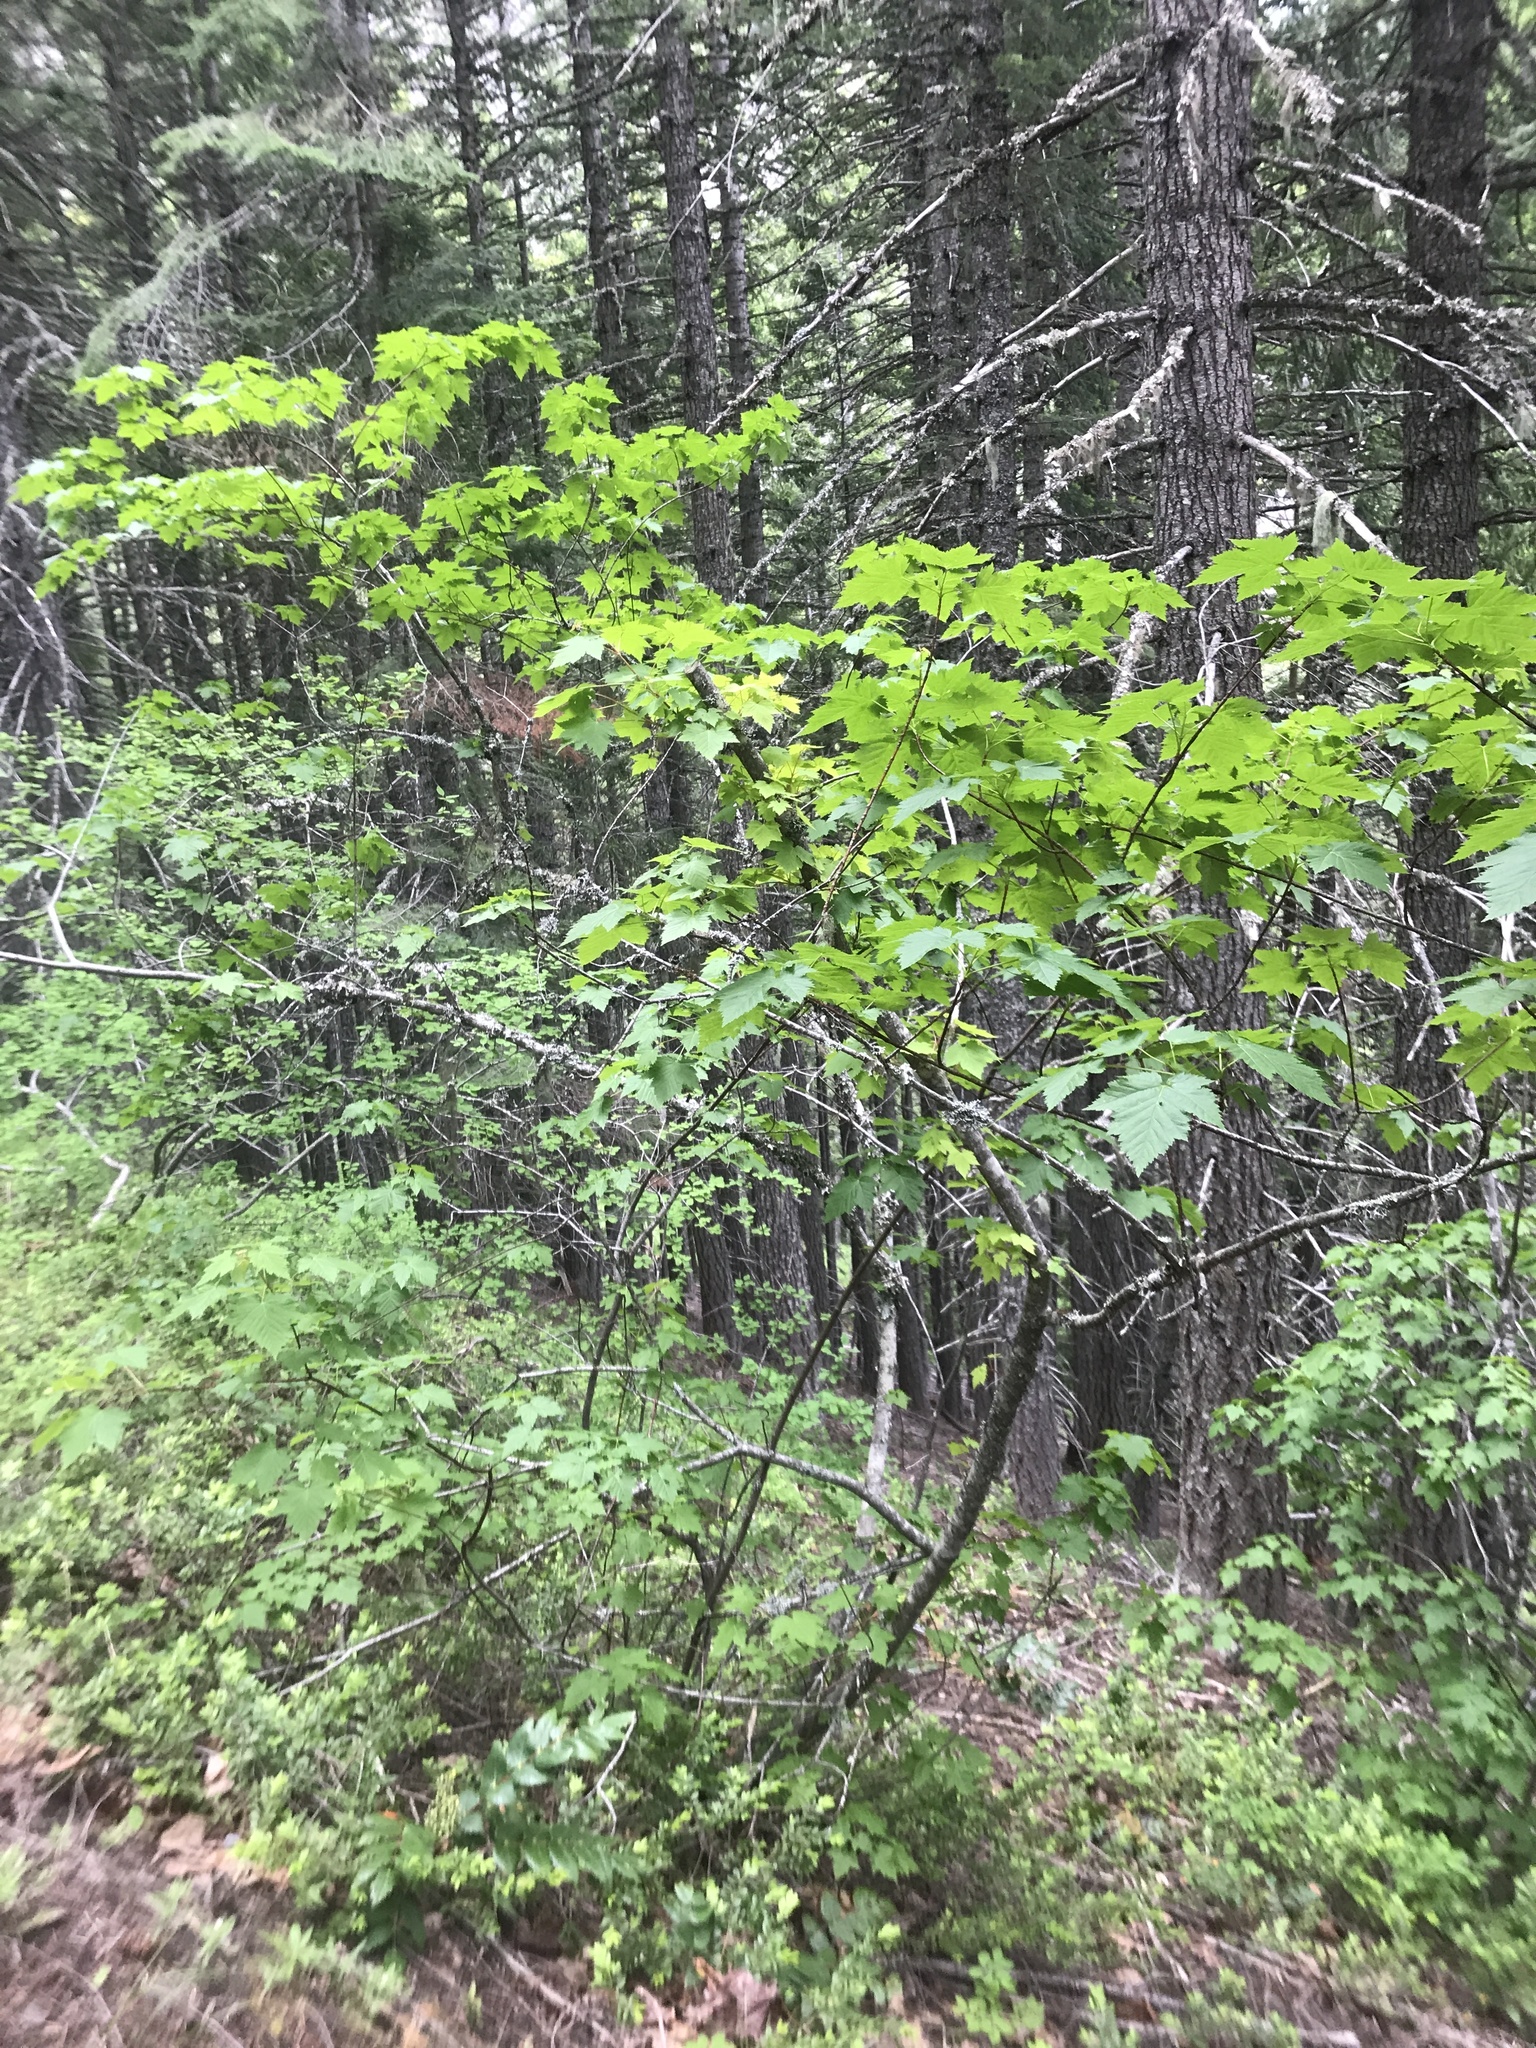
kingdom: Plantae
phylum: Tracheophyta
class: Magnoliopsida
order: Sapindales
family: Sapindaceae
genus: Acer
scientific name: Acer glabrum
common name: Rocky mountain maple
